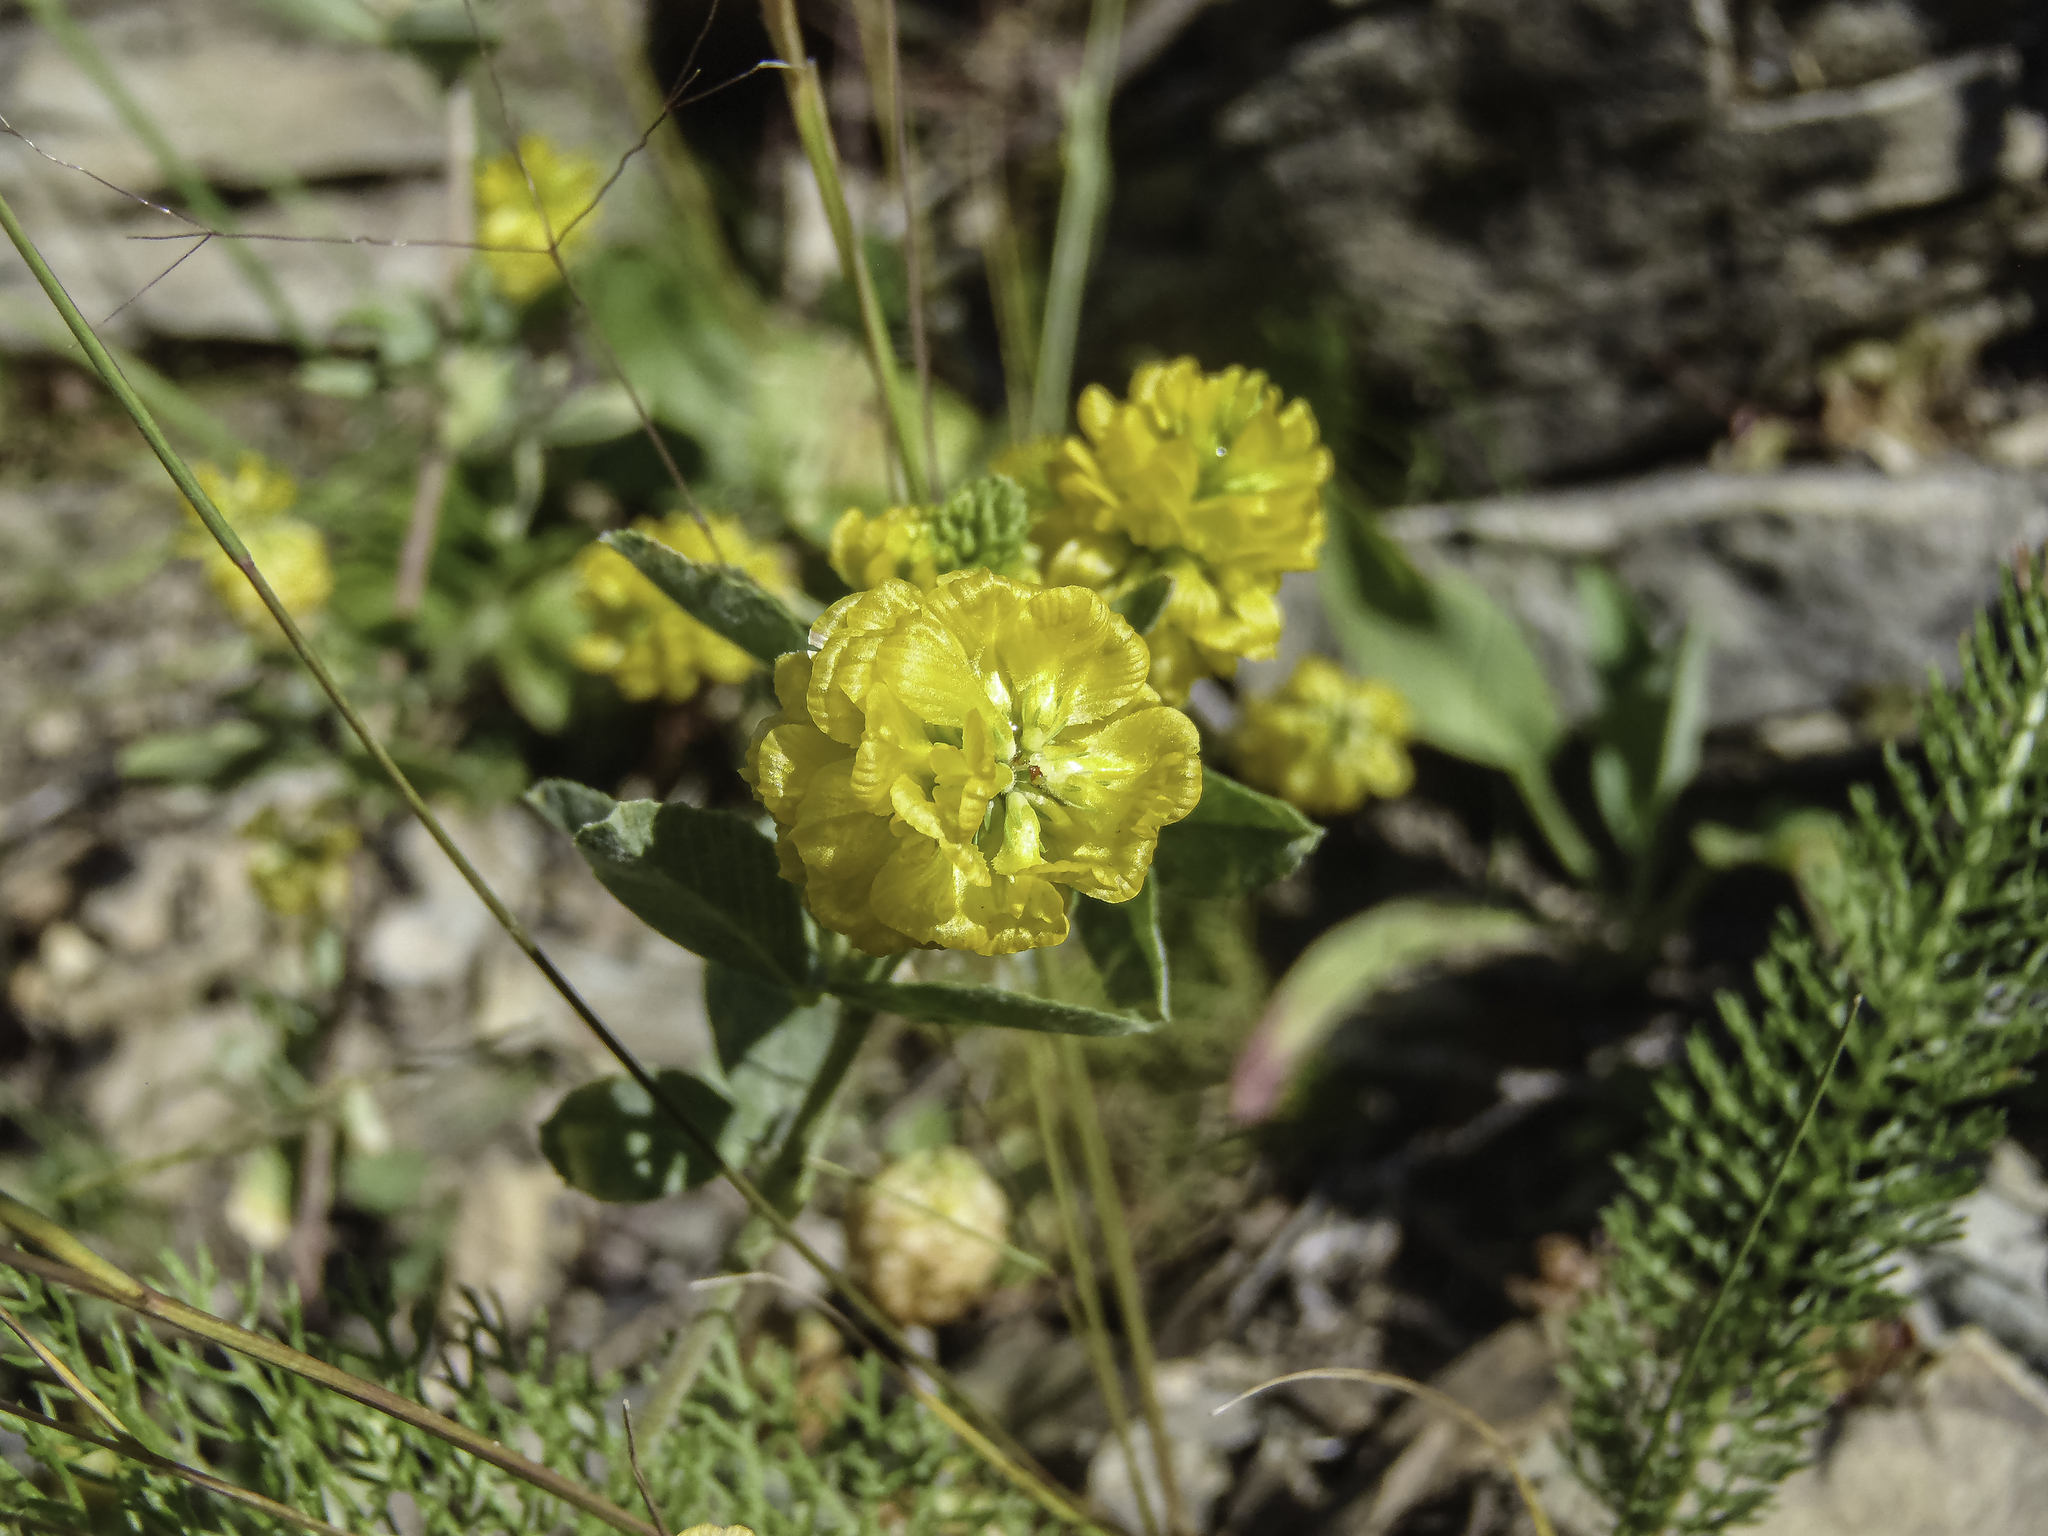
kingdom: Plantae
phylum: Tracheophyta
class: Magnoliopsida
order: Fabales
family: Fabaceae
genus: Trifolium
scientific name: Trifolium aureum
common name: Golden clover
